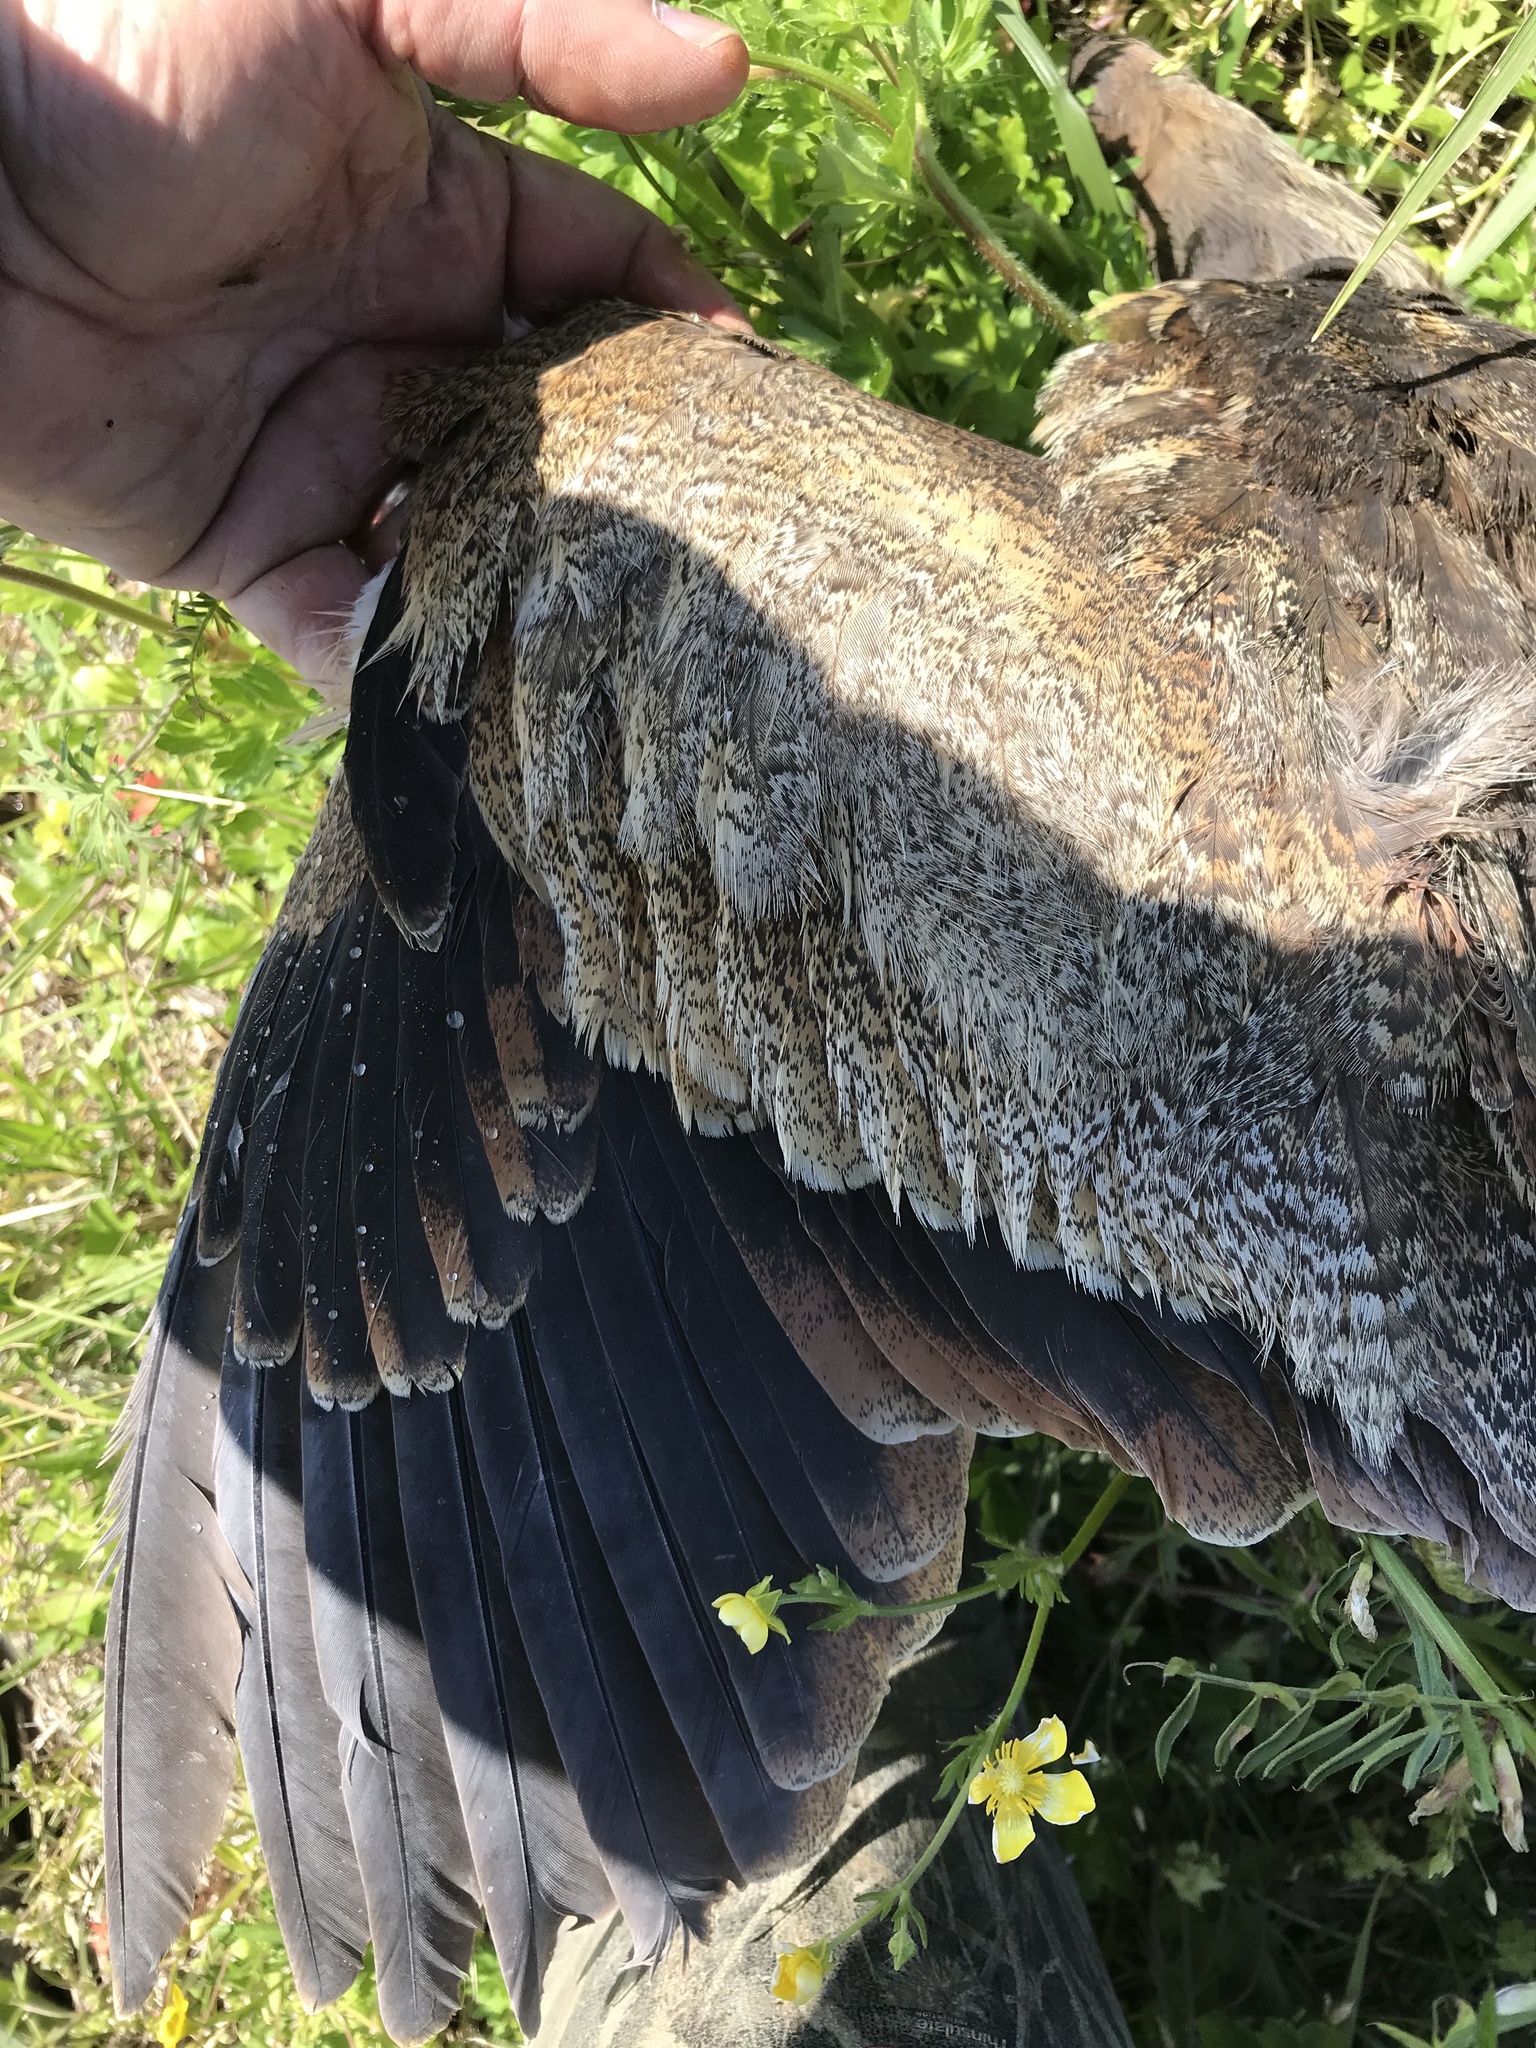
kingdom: Animalia
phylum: Chordata
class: Aves
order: Pelecaniformes
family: Ardeidae
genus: Botaurus
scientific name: Botaurus lentiginosus
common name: American bittern
